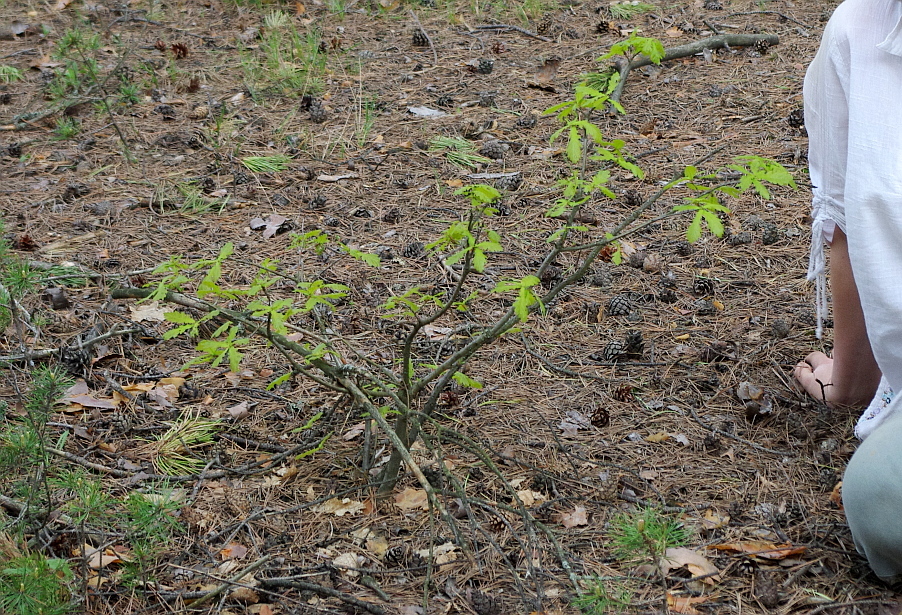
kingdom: Plantae
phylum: Tracheophyta
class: Magnoliopsida
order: Fagales
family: Fagaceae
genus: Quercus
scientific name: Quercus robur
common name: Pedunculate oak
